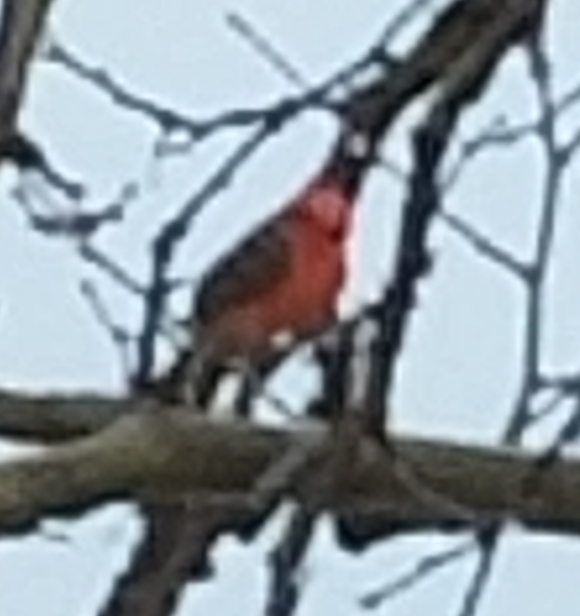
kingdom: Animalia
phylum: Chordata
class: Aves
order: Passeriformes
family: Tyrannidae
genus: Pyrocephalus
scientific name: Pyrocephalus rubinus
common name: Vermilion flycatcher
